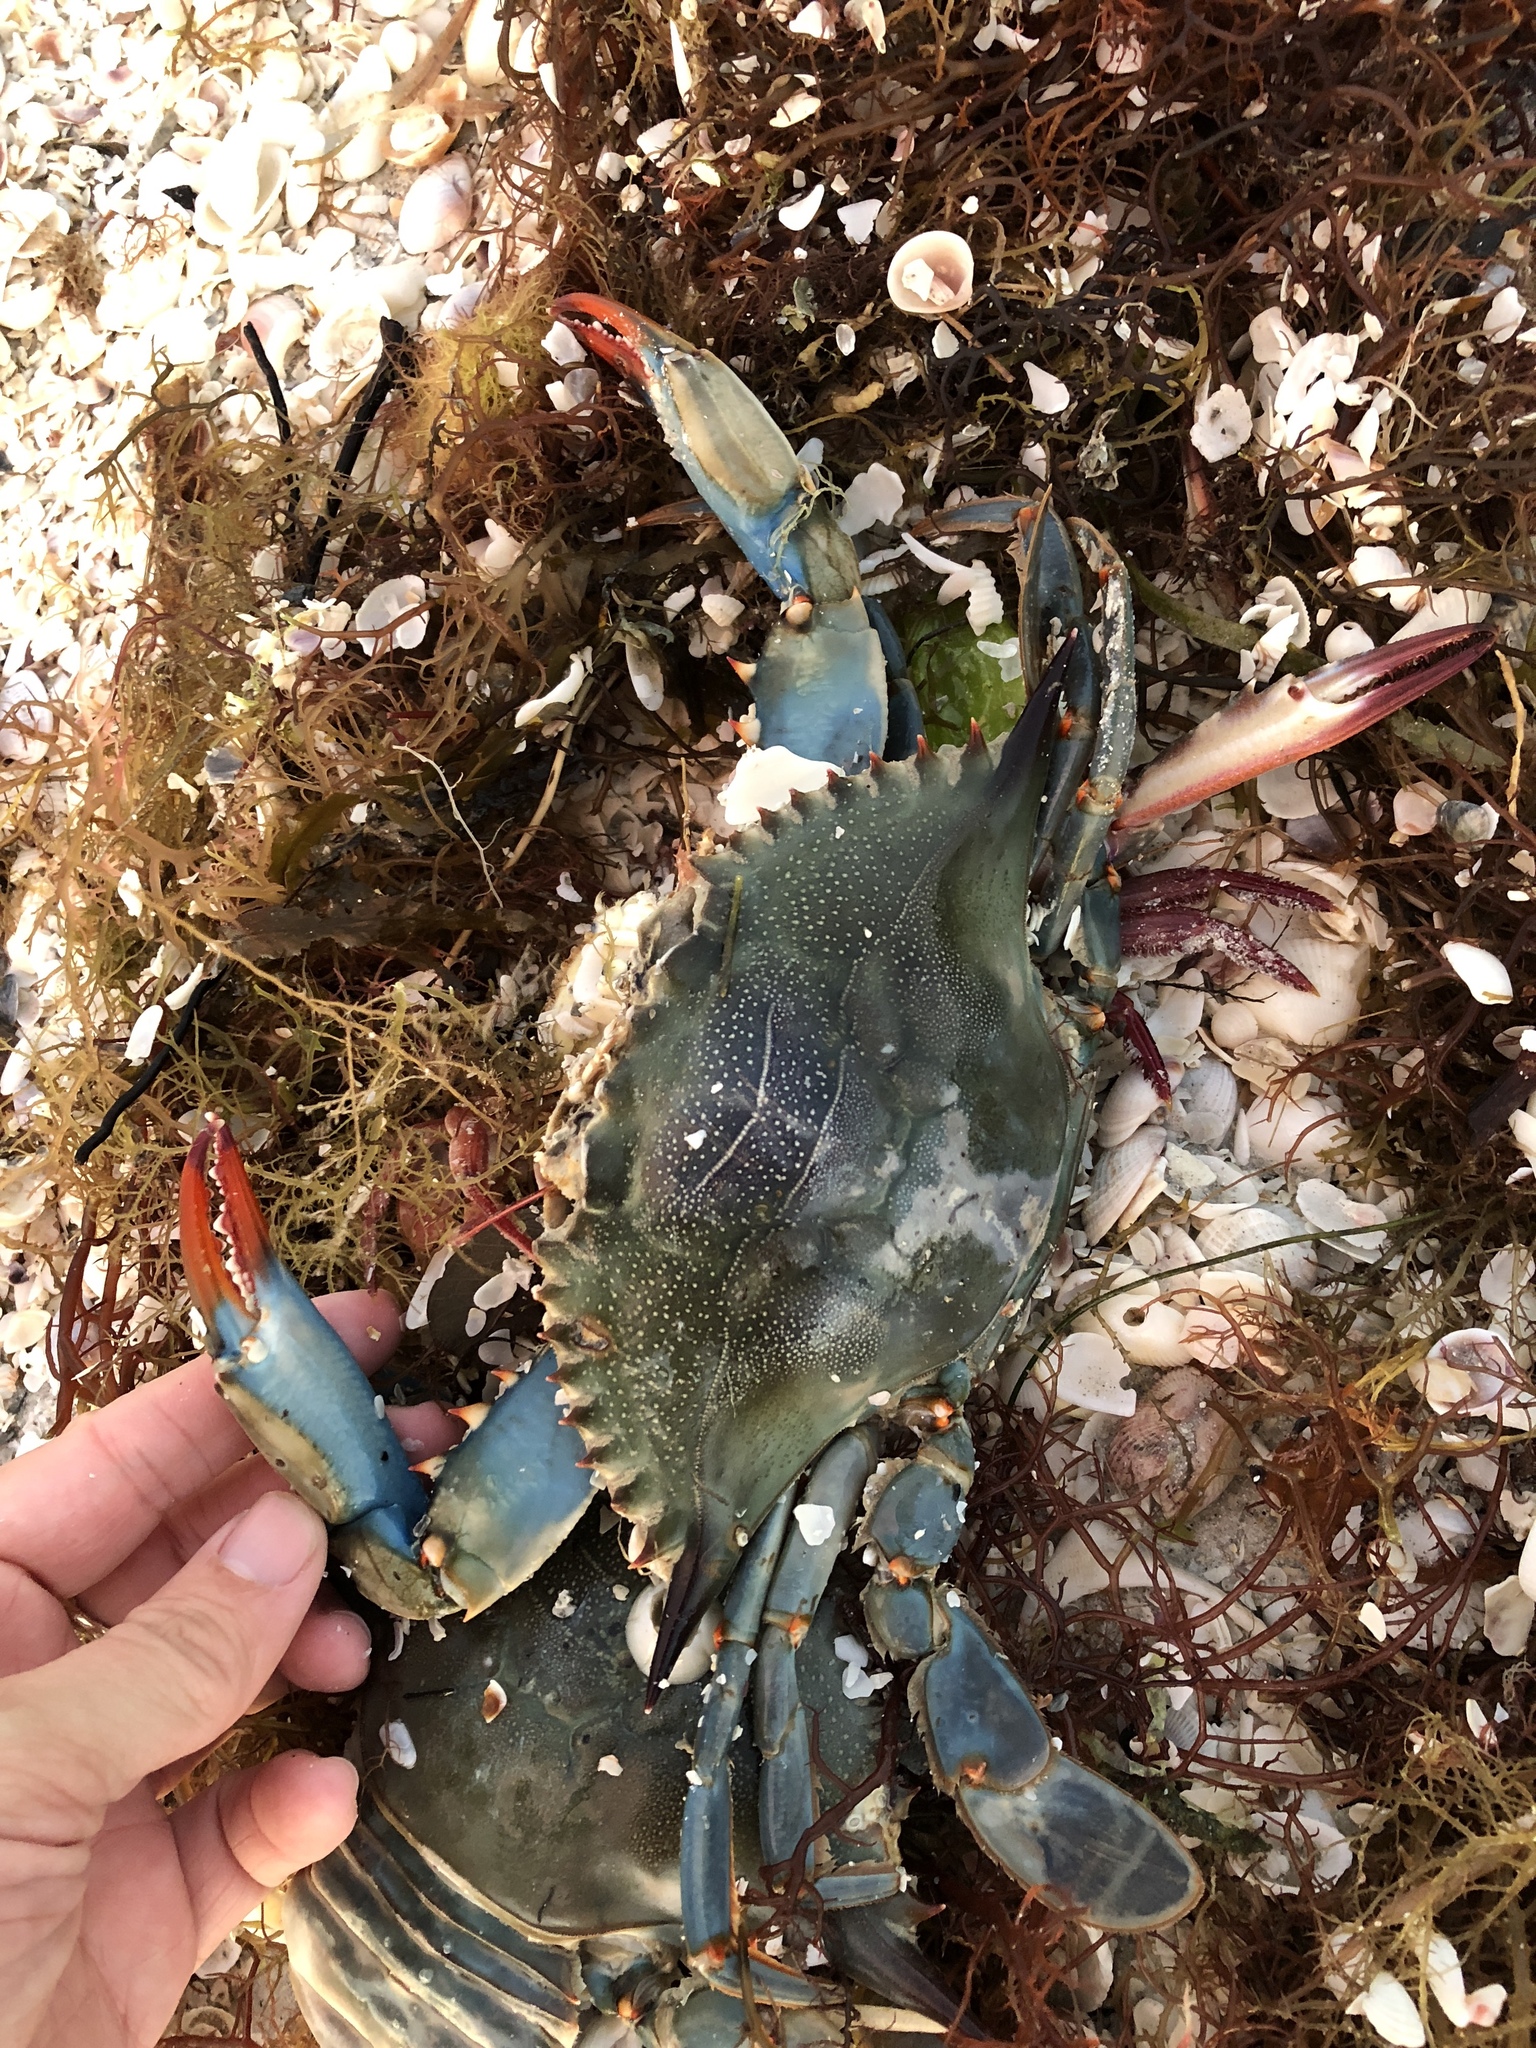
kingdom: Animalia
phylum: Arthropoda
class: Malacostraca
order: Decapoda
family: Portunidae
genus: Callinectes
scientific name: Callinectes sapidus
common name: Blue crab
